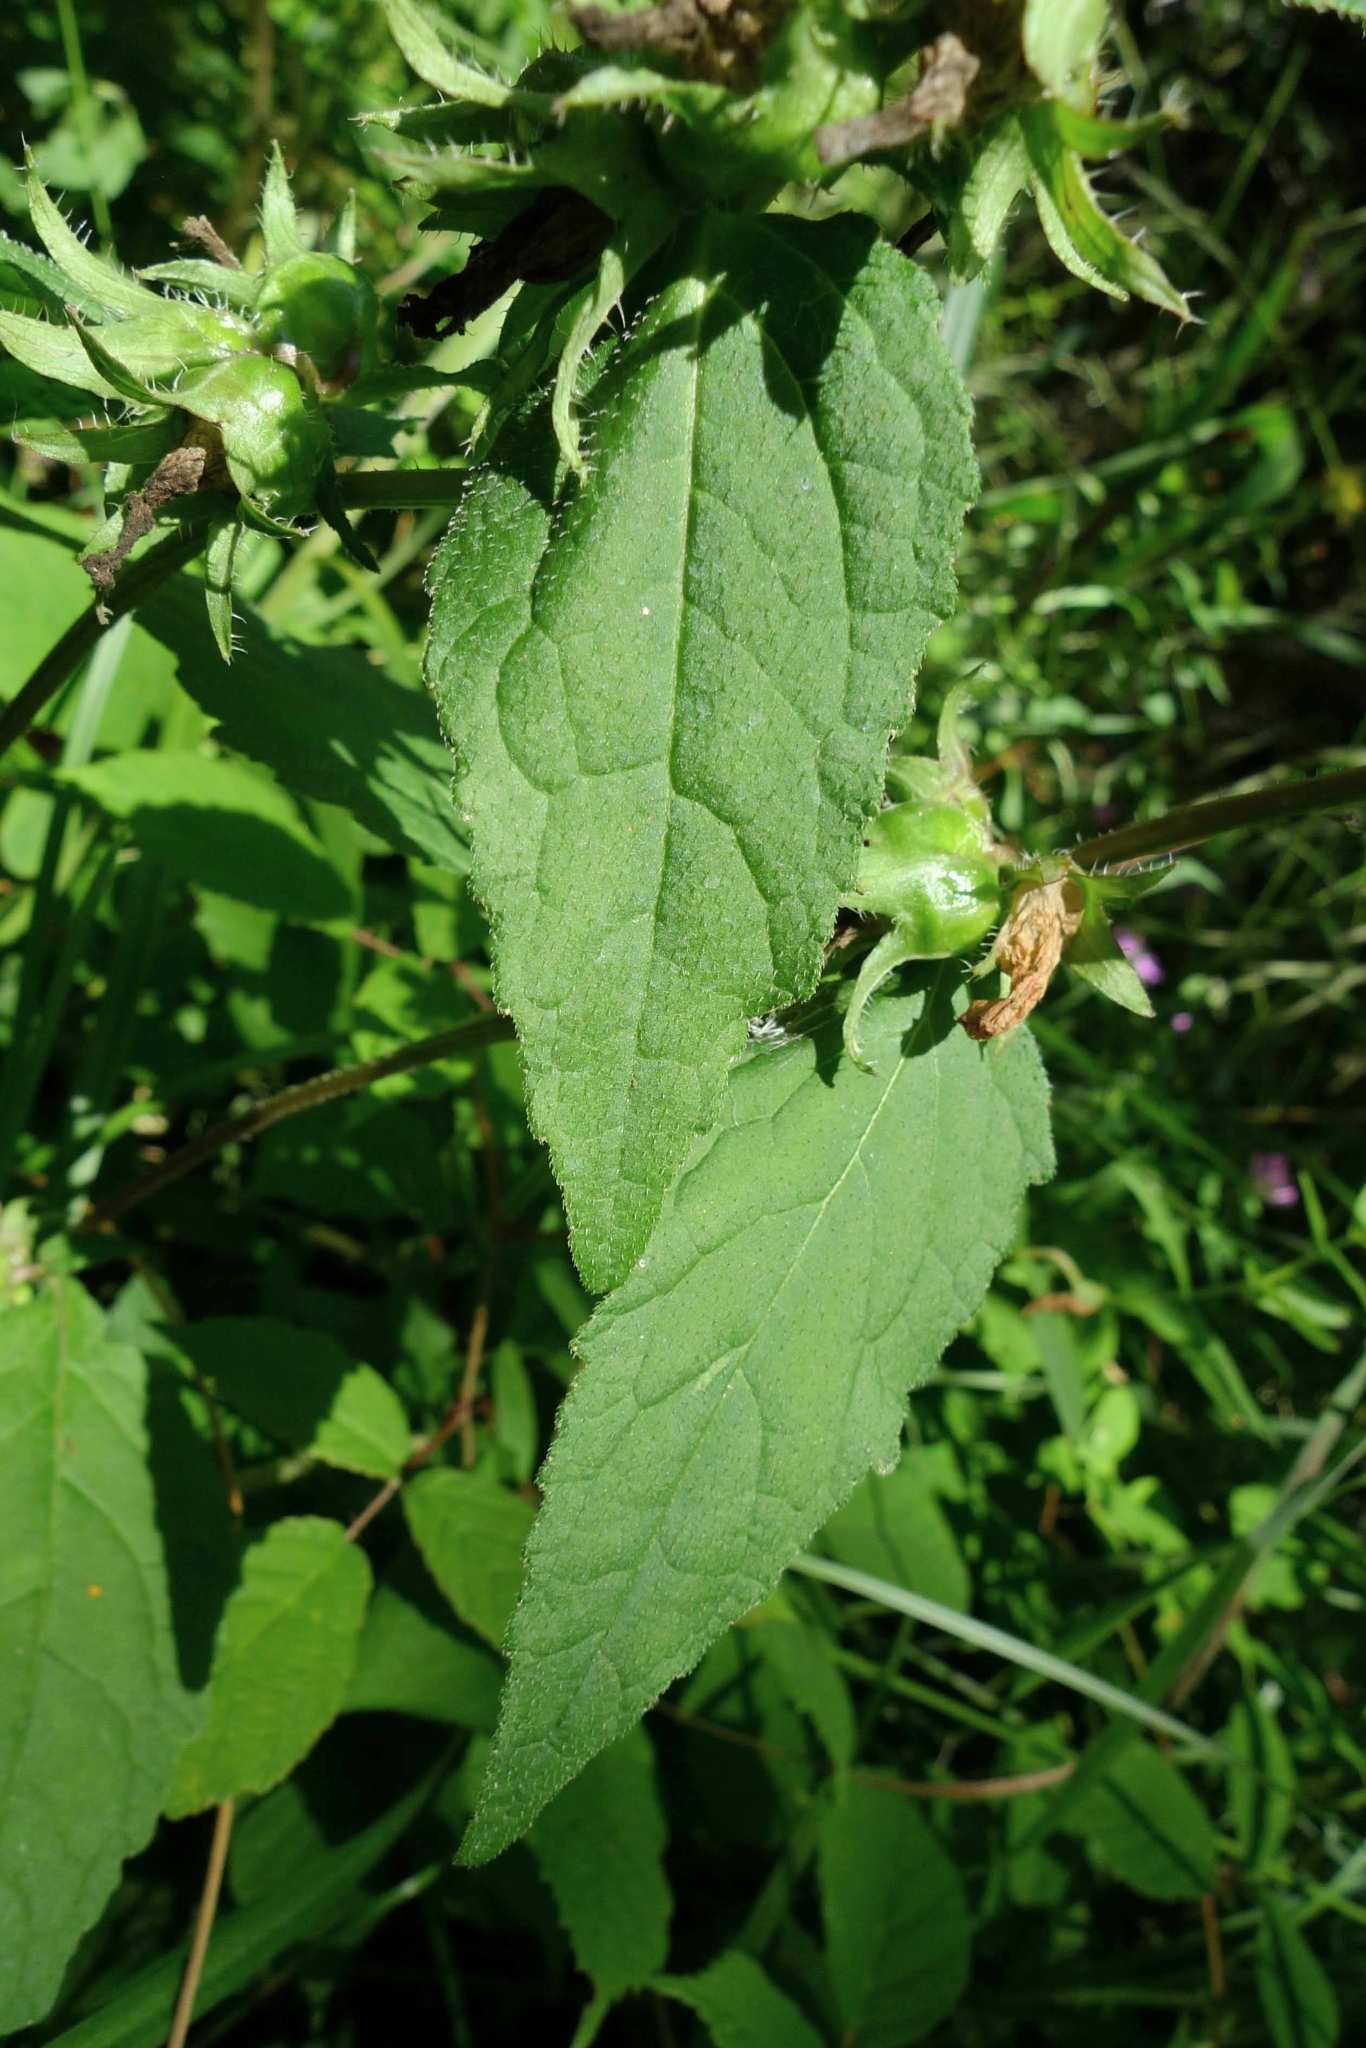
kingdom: Plantae
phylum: Tracheophyta
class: Magnoliopsida
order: Asterales
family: Campanulaceae
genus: Campanula
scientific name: Campanula trachelium
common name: Nettle-leaved bellflower
